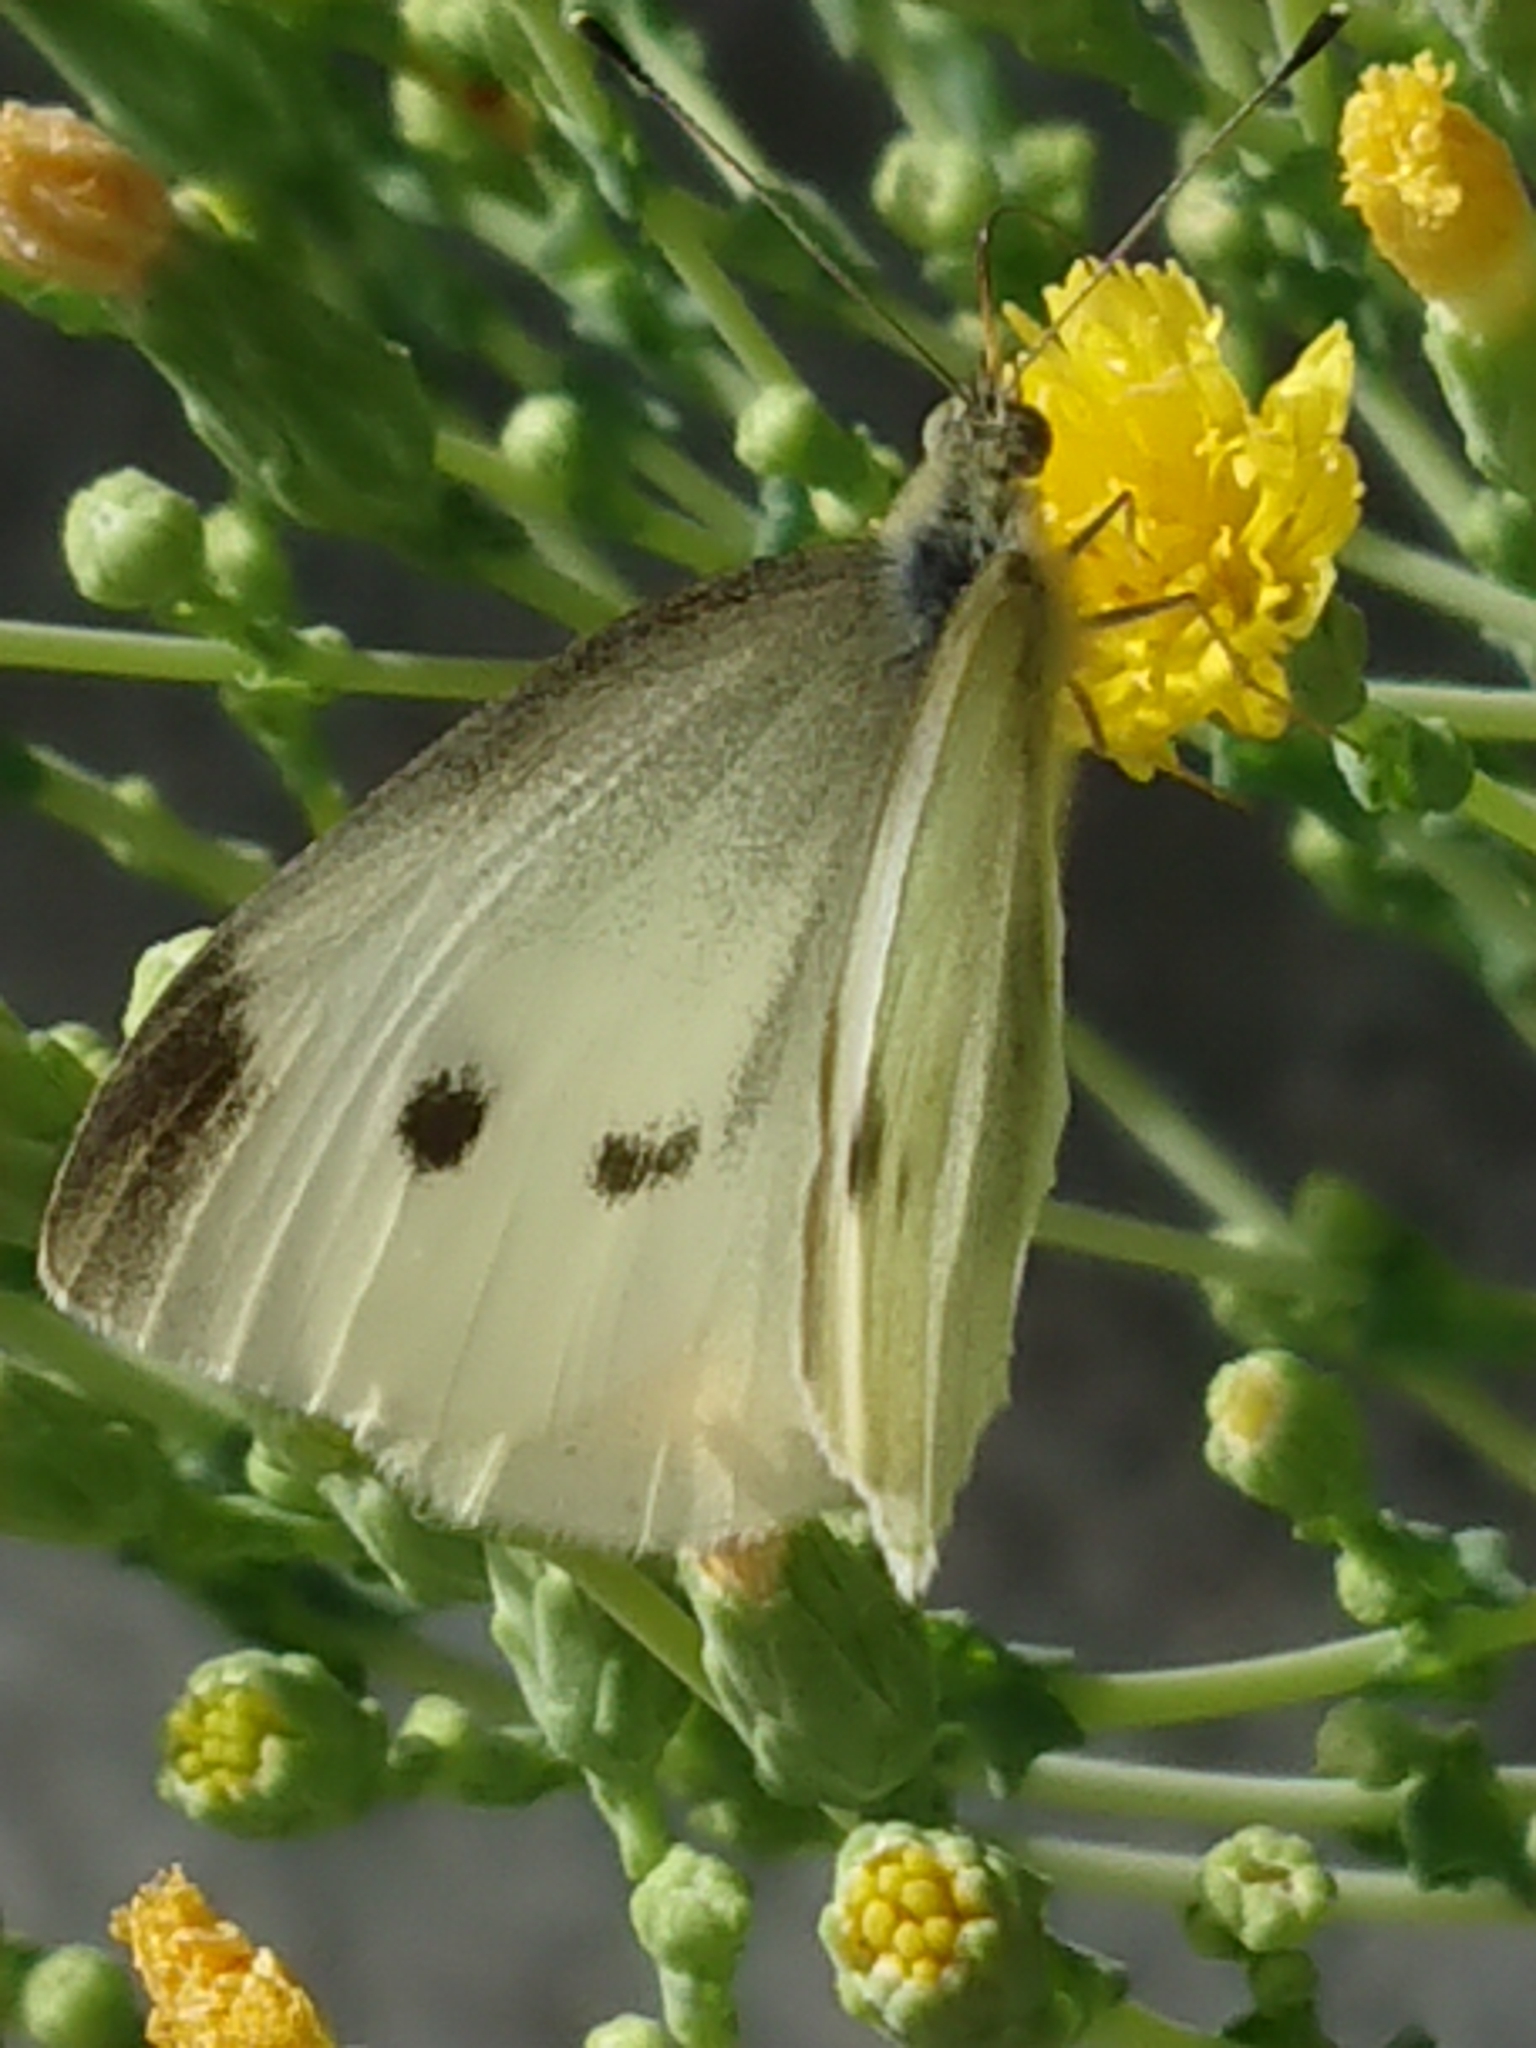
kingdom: Animalia
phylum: Arthropoda
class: Insecta
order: Lepidoptera
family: Pieridae
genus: Pieris
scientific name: Pieris rapae
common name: Small white
